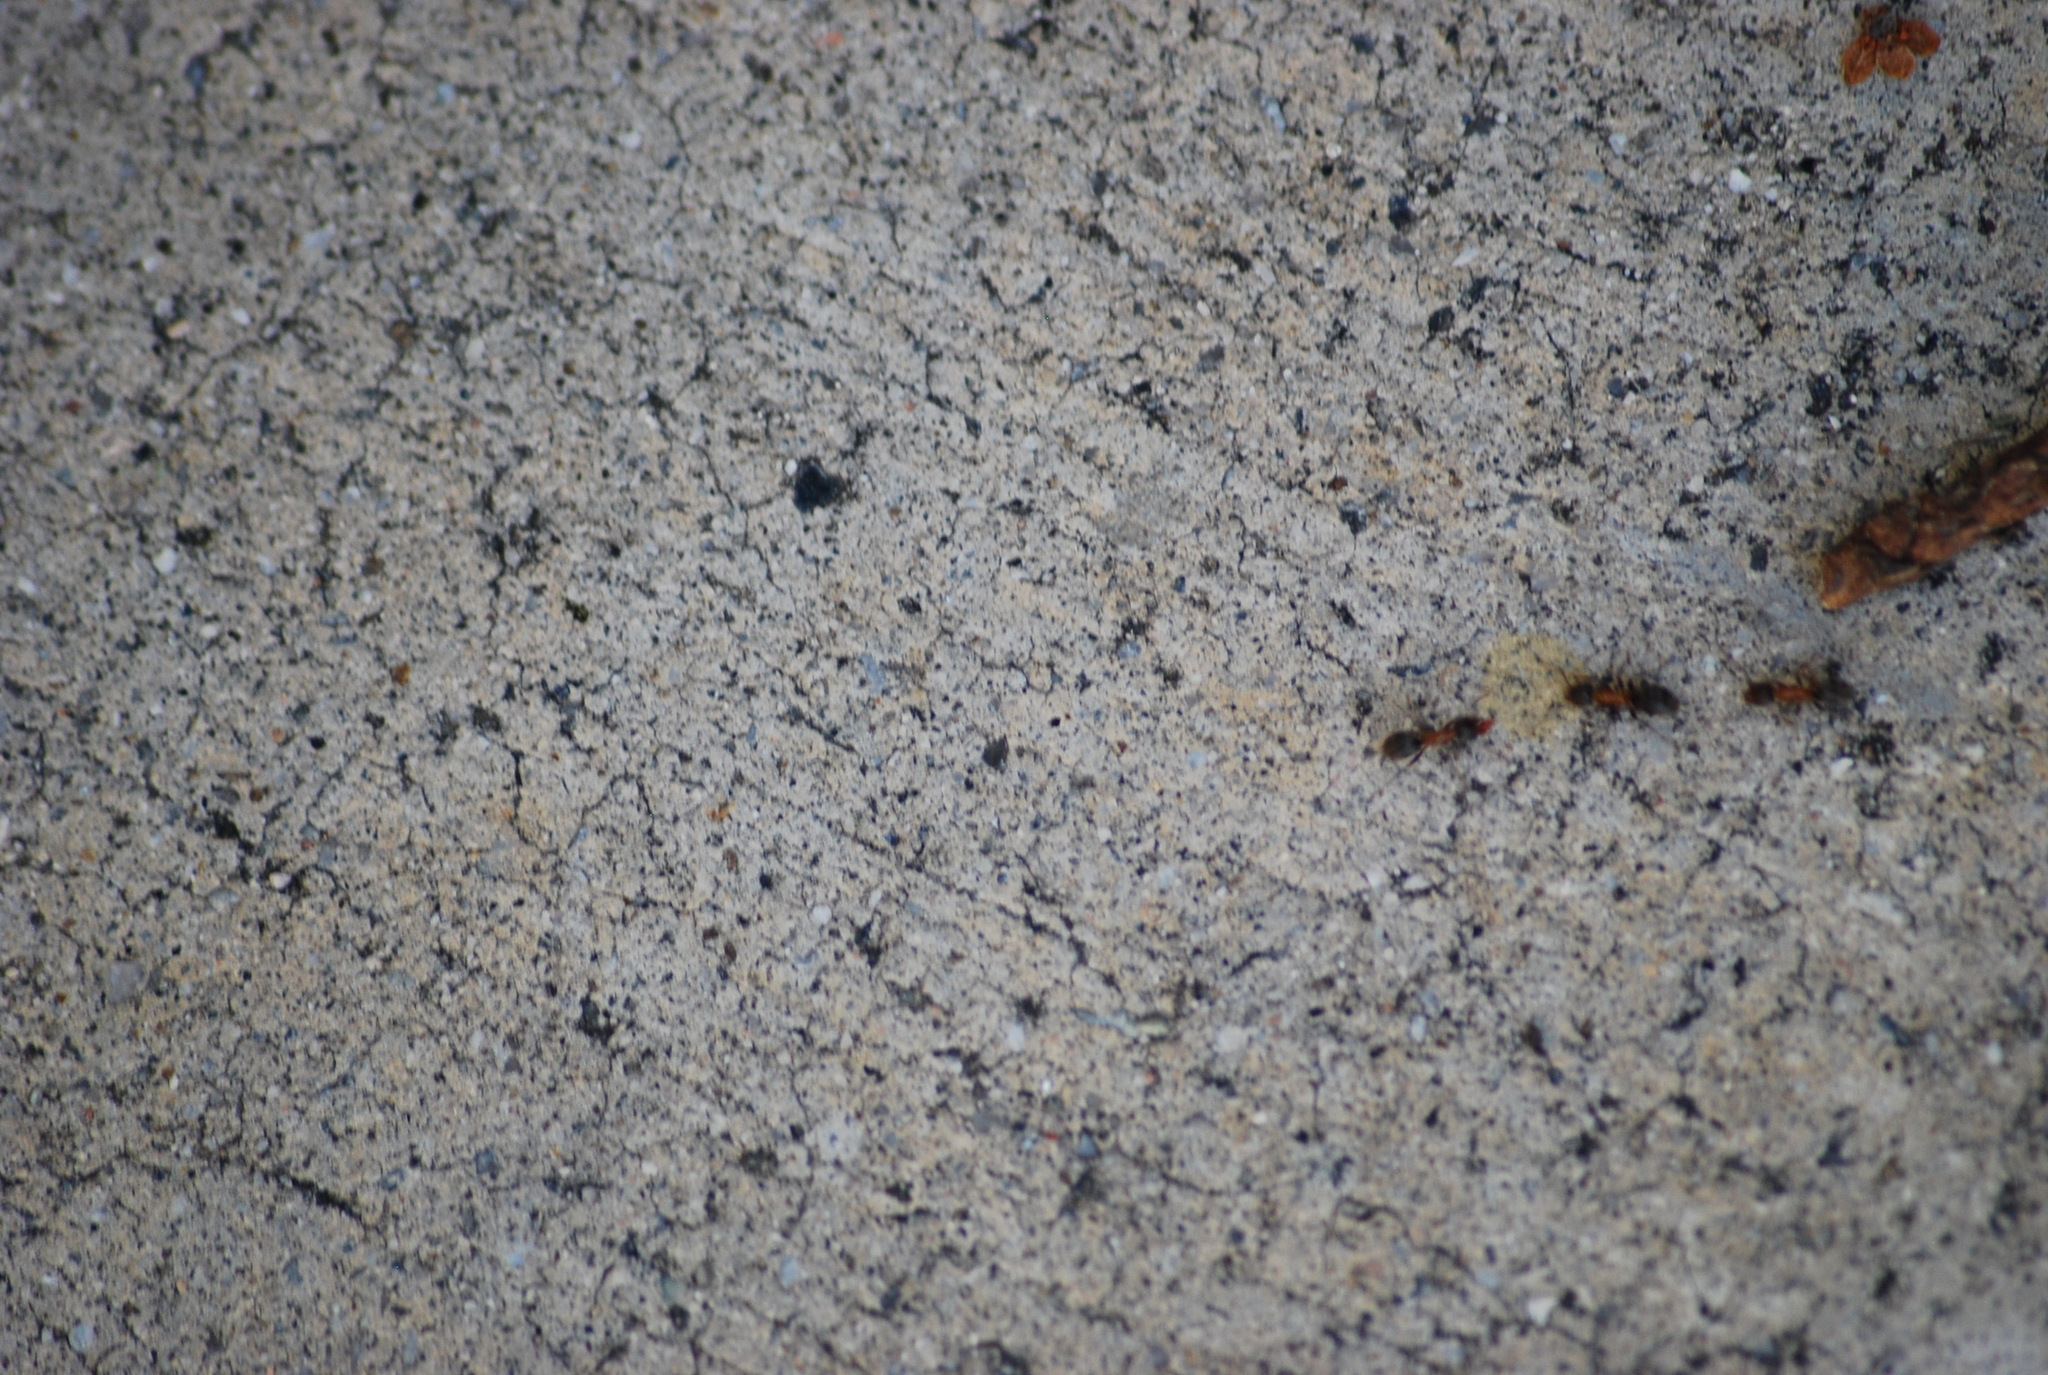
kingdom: Animalia
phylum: Arthropoda
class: Insecta
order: Hymenoptera
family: Formicidae
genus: Linepithema
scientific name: Linepithema humile
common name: Argentine ant
